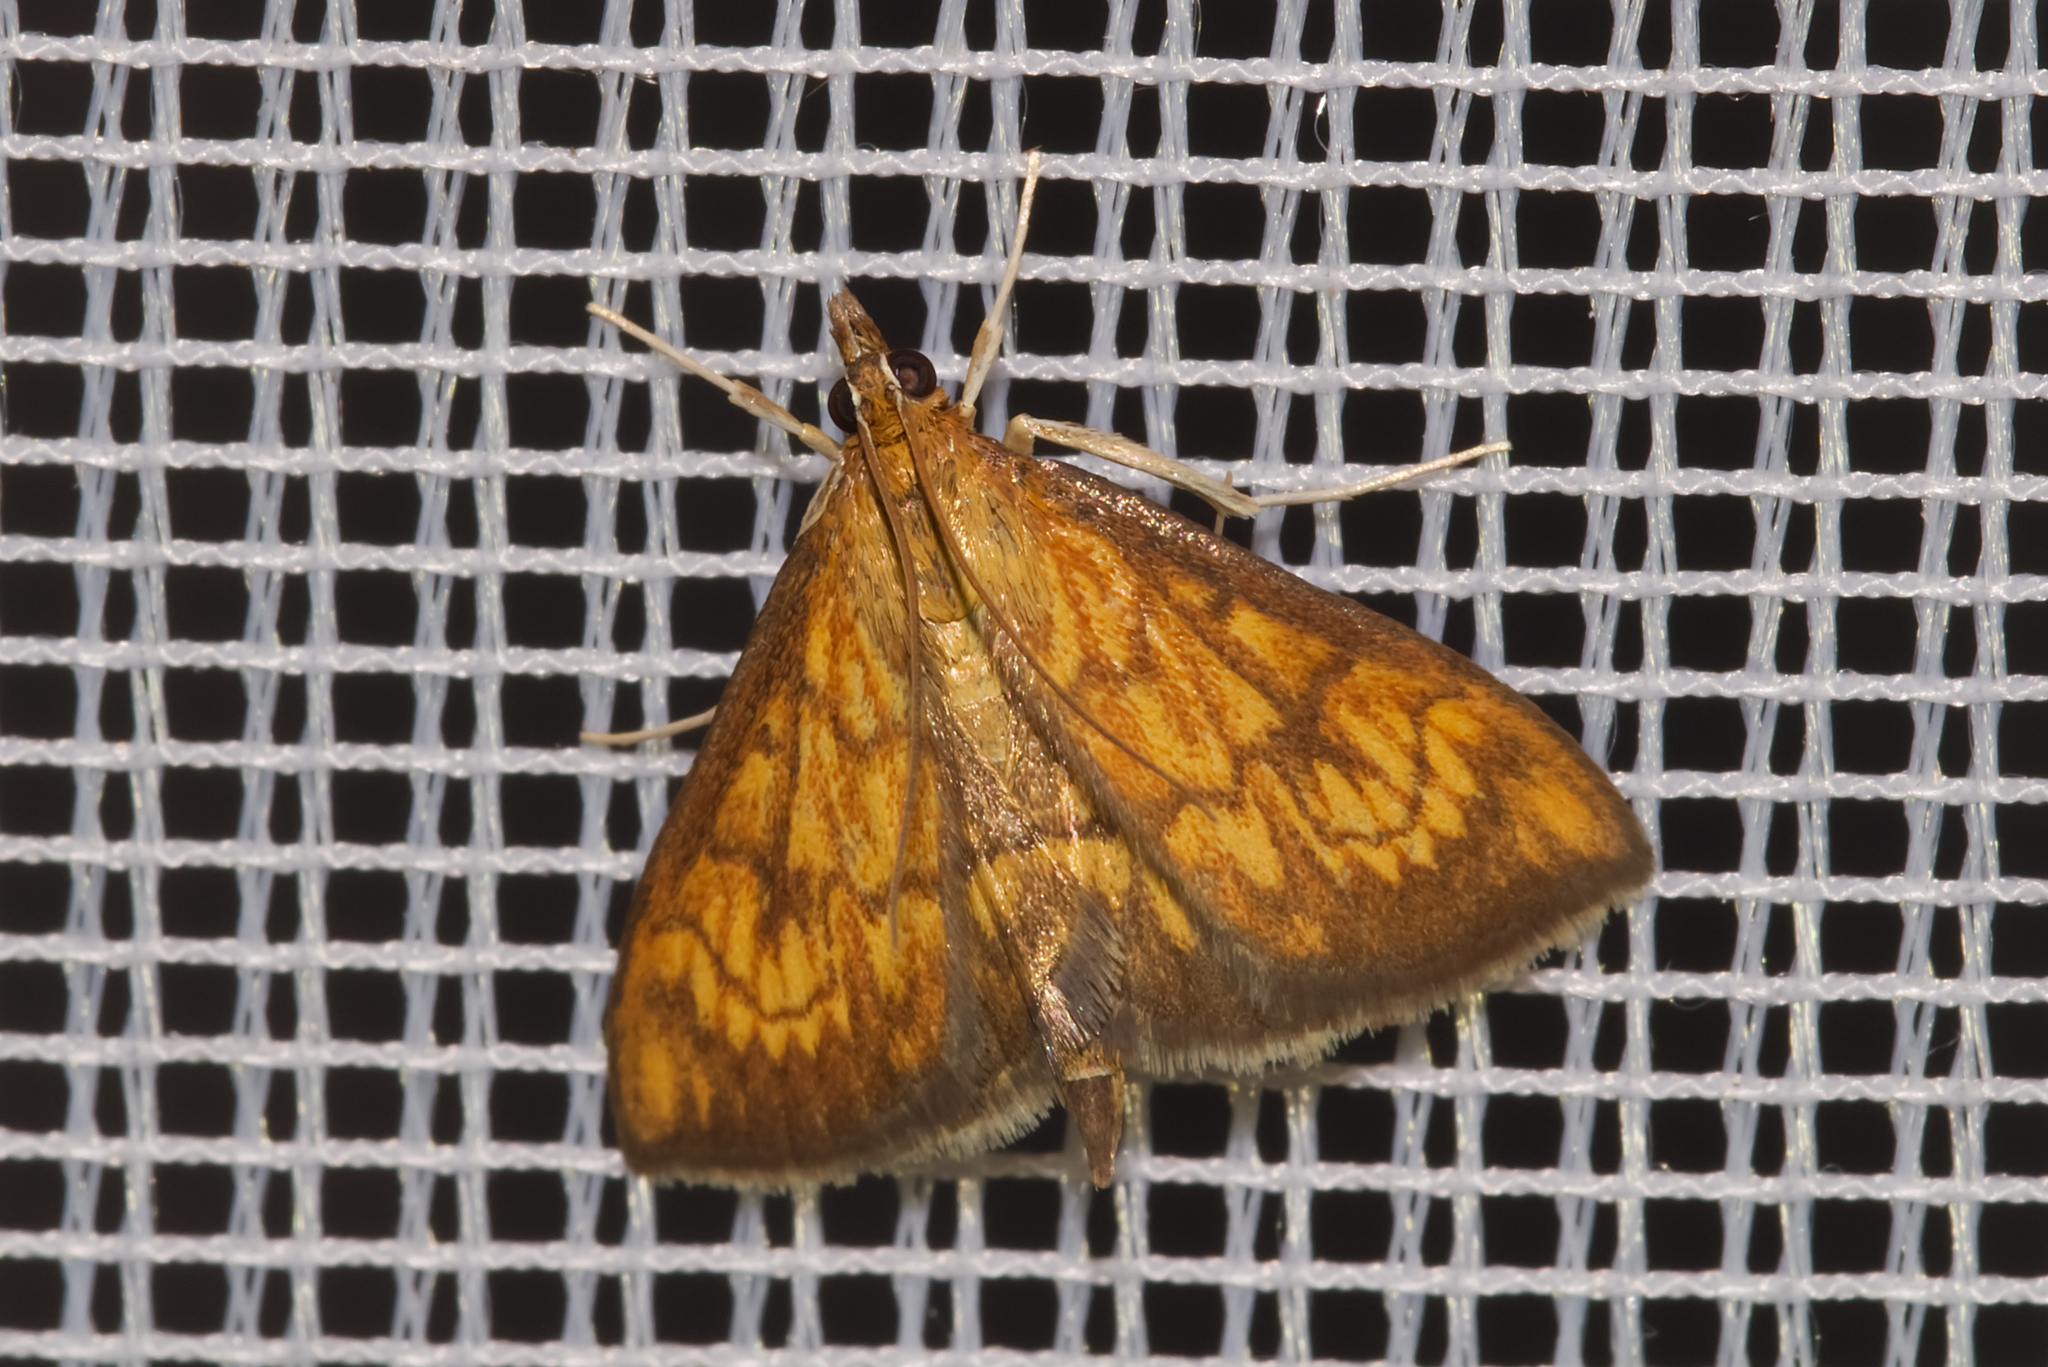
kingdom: Animalia
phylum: Arthropoda
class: Insecta
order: Lepidoptera
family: Crambidae
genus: Ecpyrrhorrhoe
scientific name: Ecpyrrhorrhoe rubiginalis
